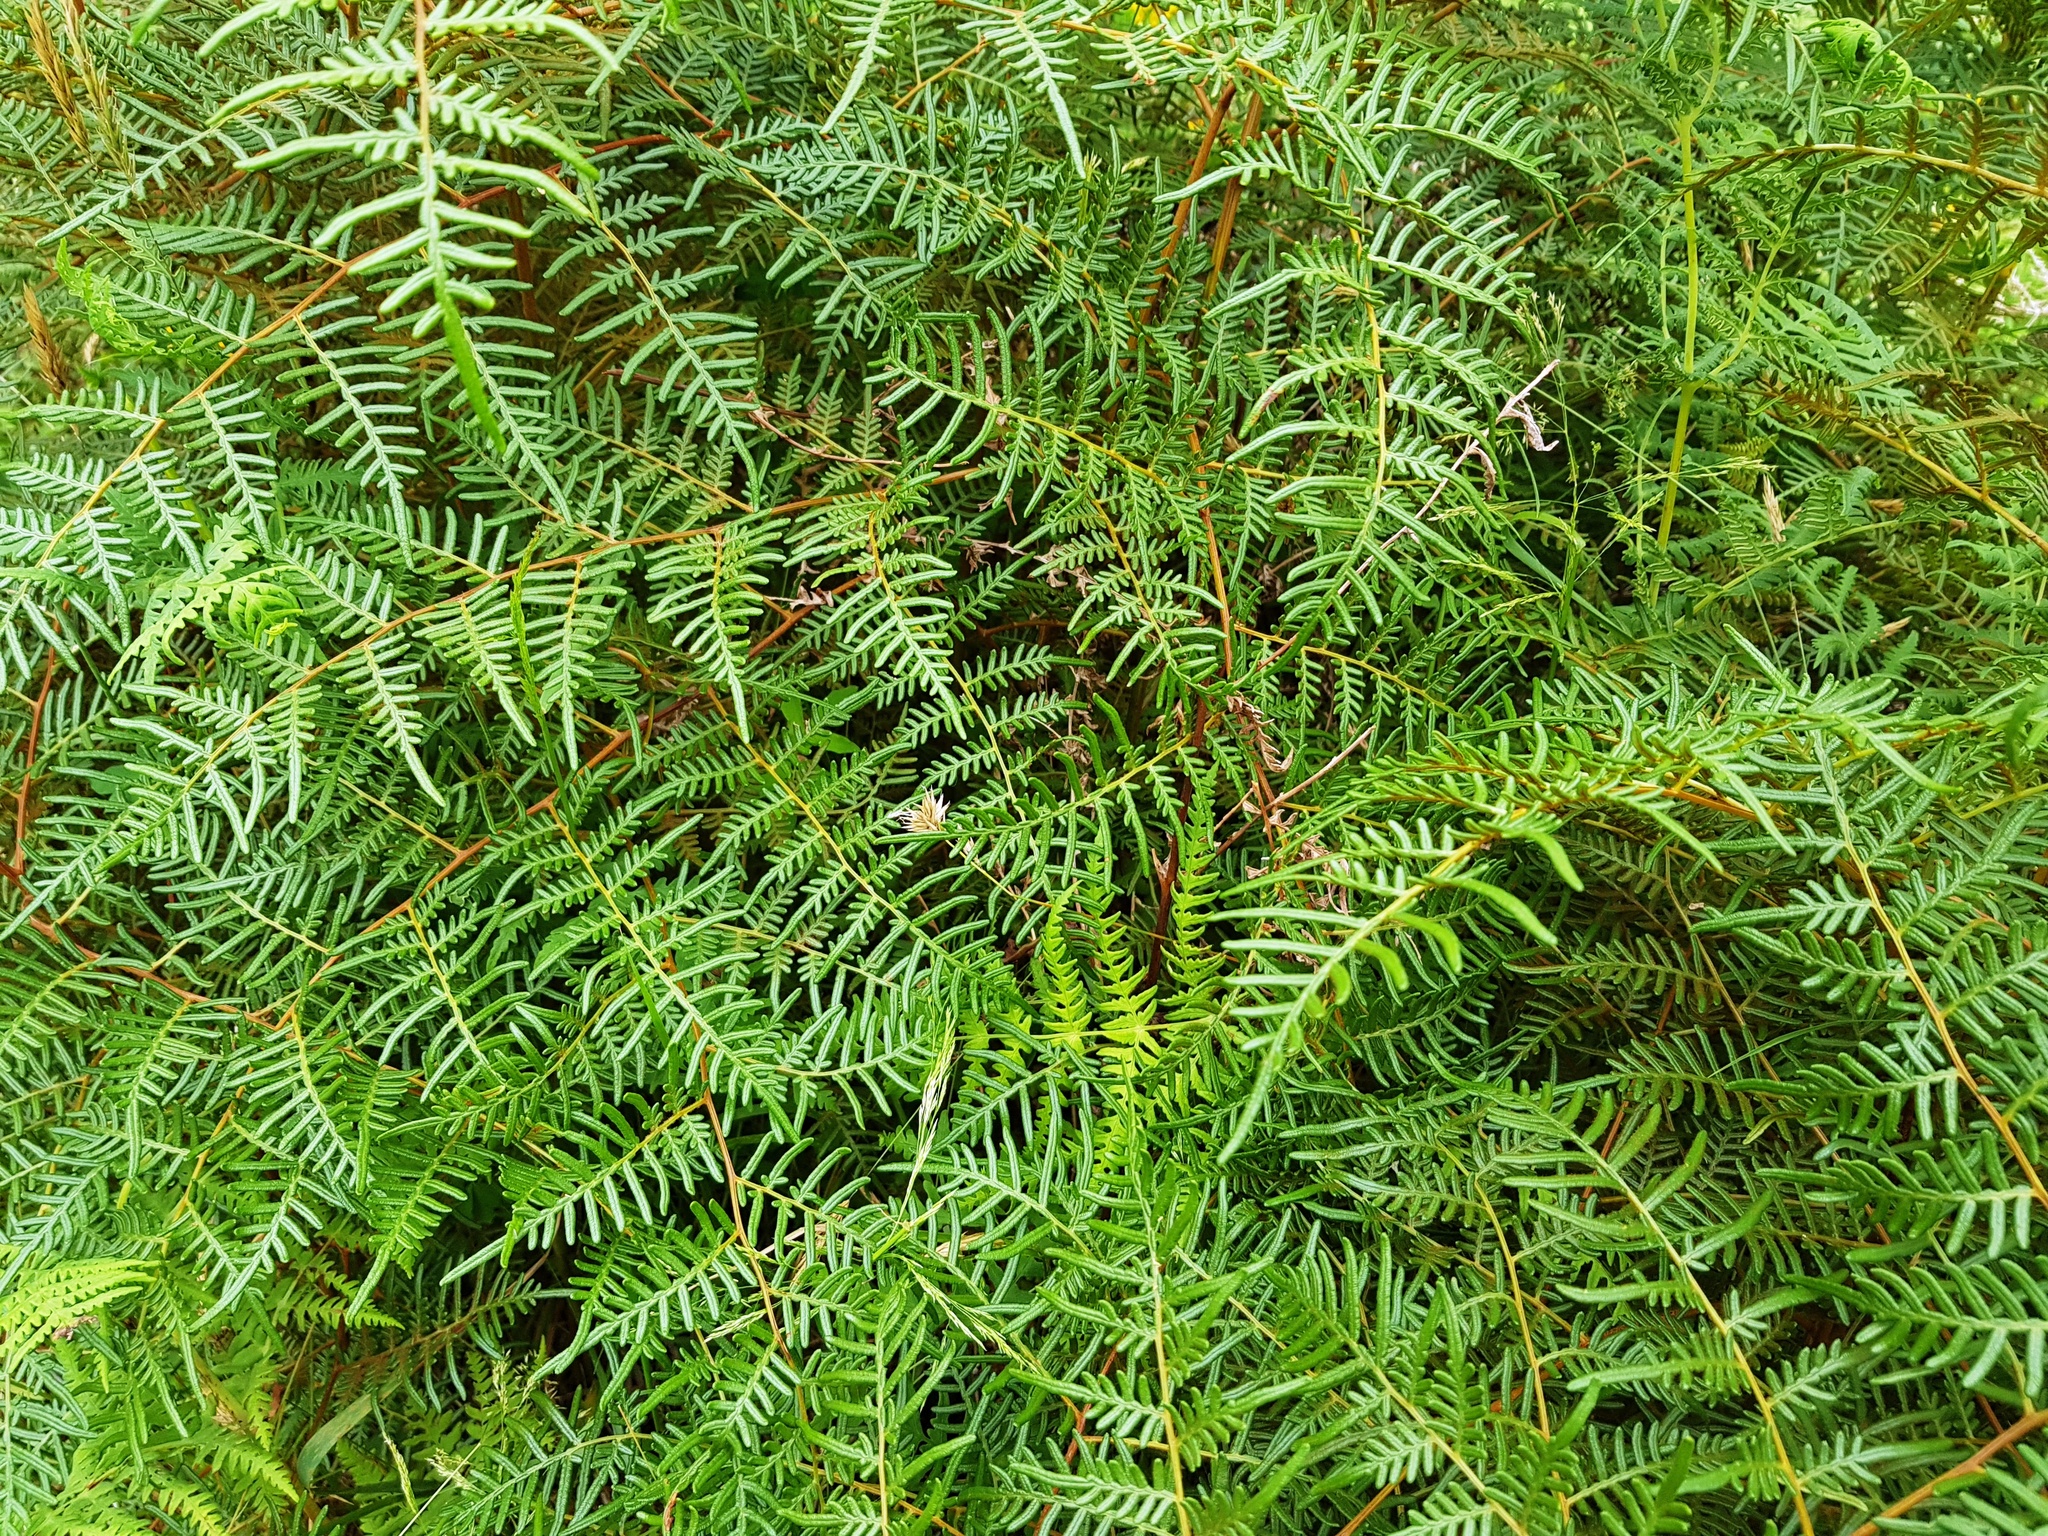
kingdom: Plantae
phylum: Tracheophyta
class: Polypodiopsida
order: Polypodiales
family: Dennstaedtiaceae
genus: Pteridium
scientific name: Pteridium esculentum
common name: Bracken fern
